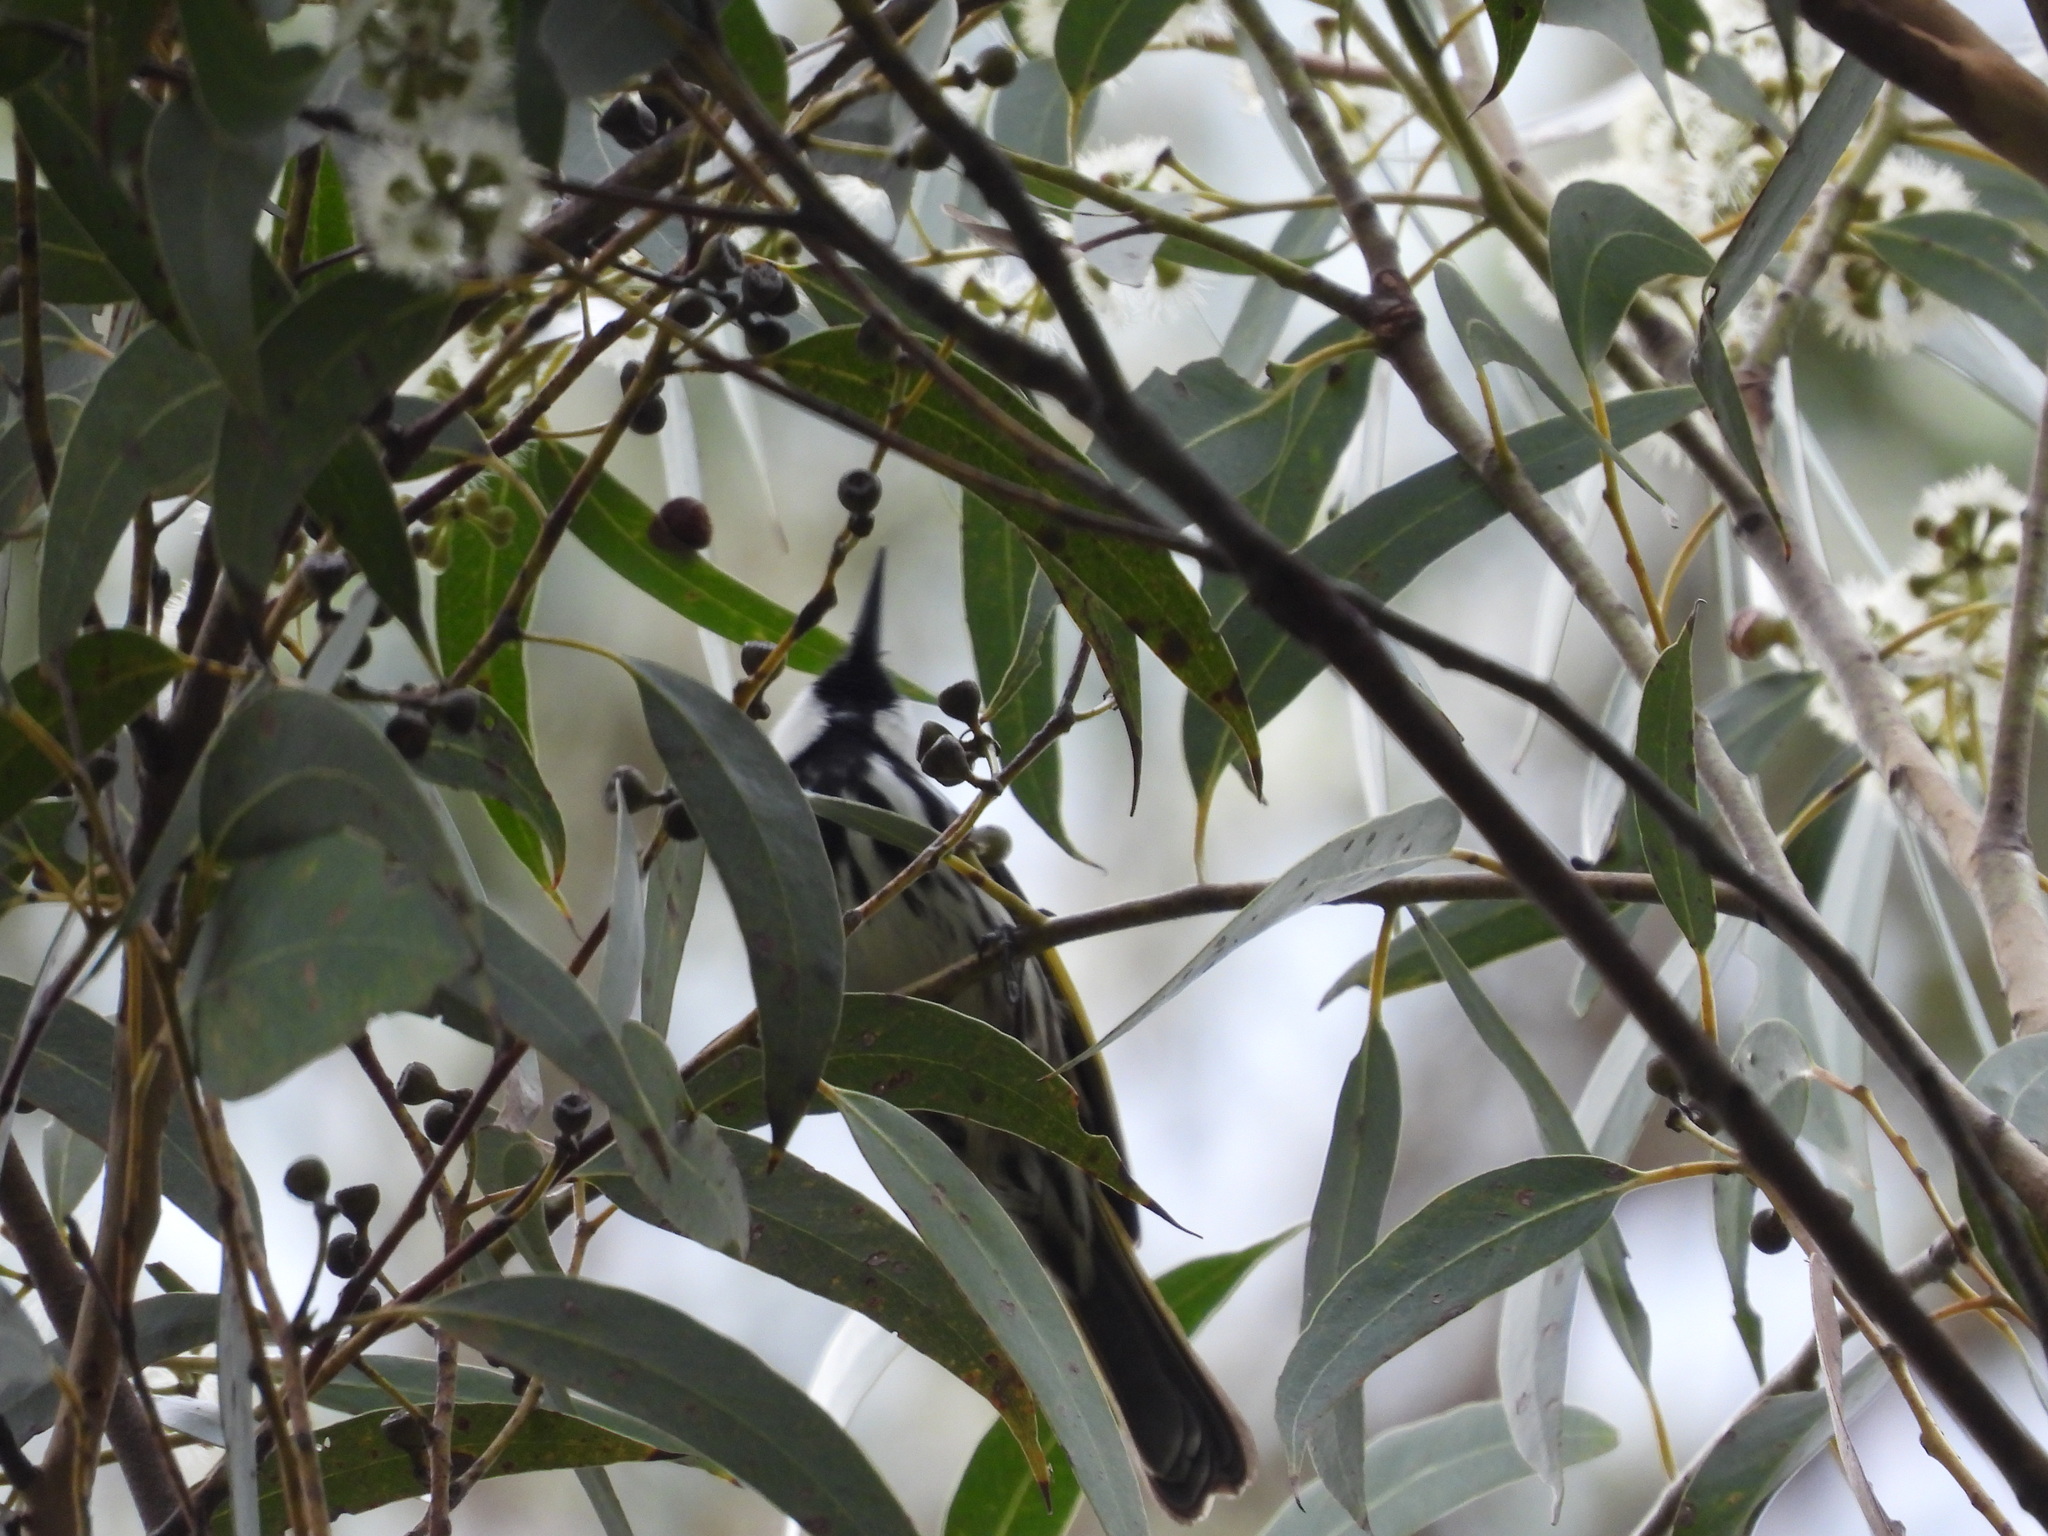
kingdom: Animalia
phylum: Chordata
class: Aves
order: Passeriformes
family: Meliphagidae
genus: Phylidonyris
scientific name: Phylidonyris niger
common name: White-cheeked honeyeater
